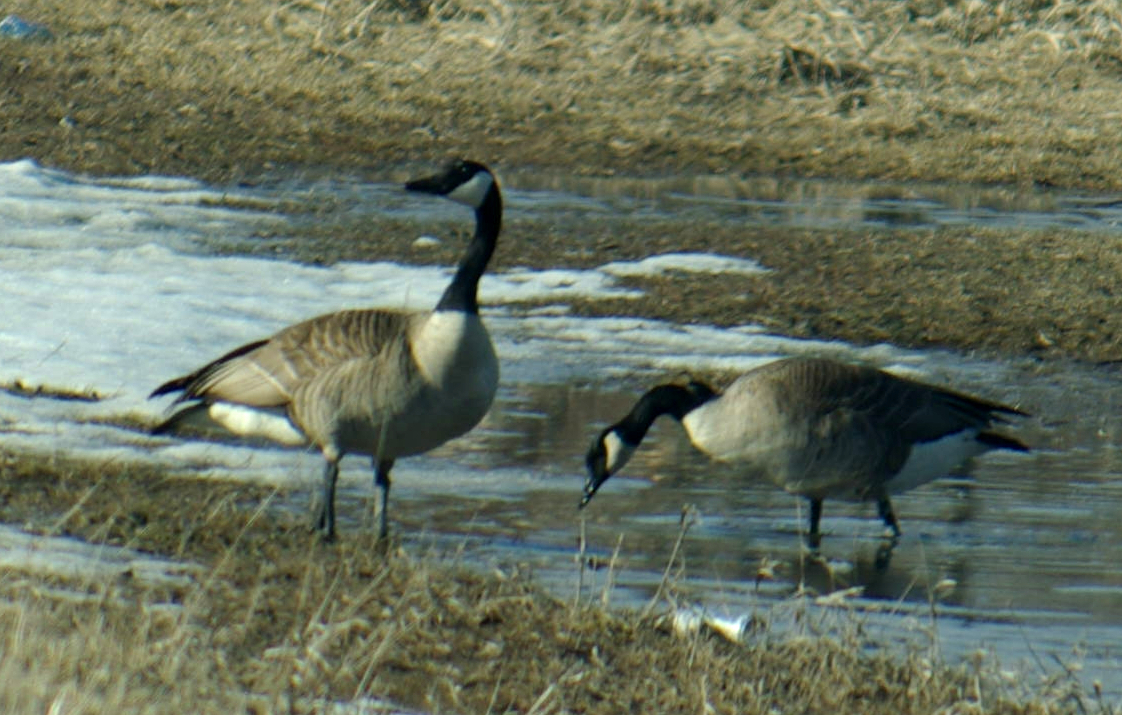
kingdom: Animalia
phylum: Chordata
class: Aves
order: Anseriformes
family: Anatidae
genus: Branta
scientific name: Branta canadensis
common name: Canada goose
